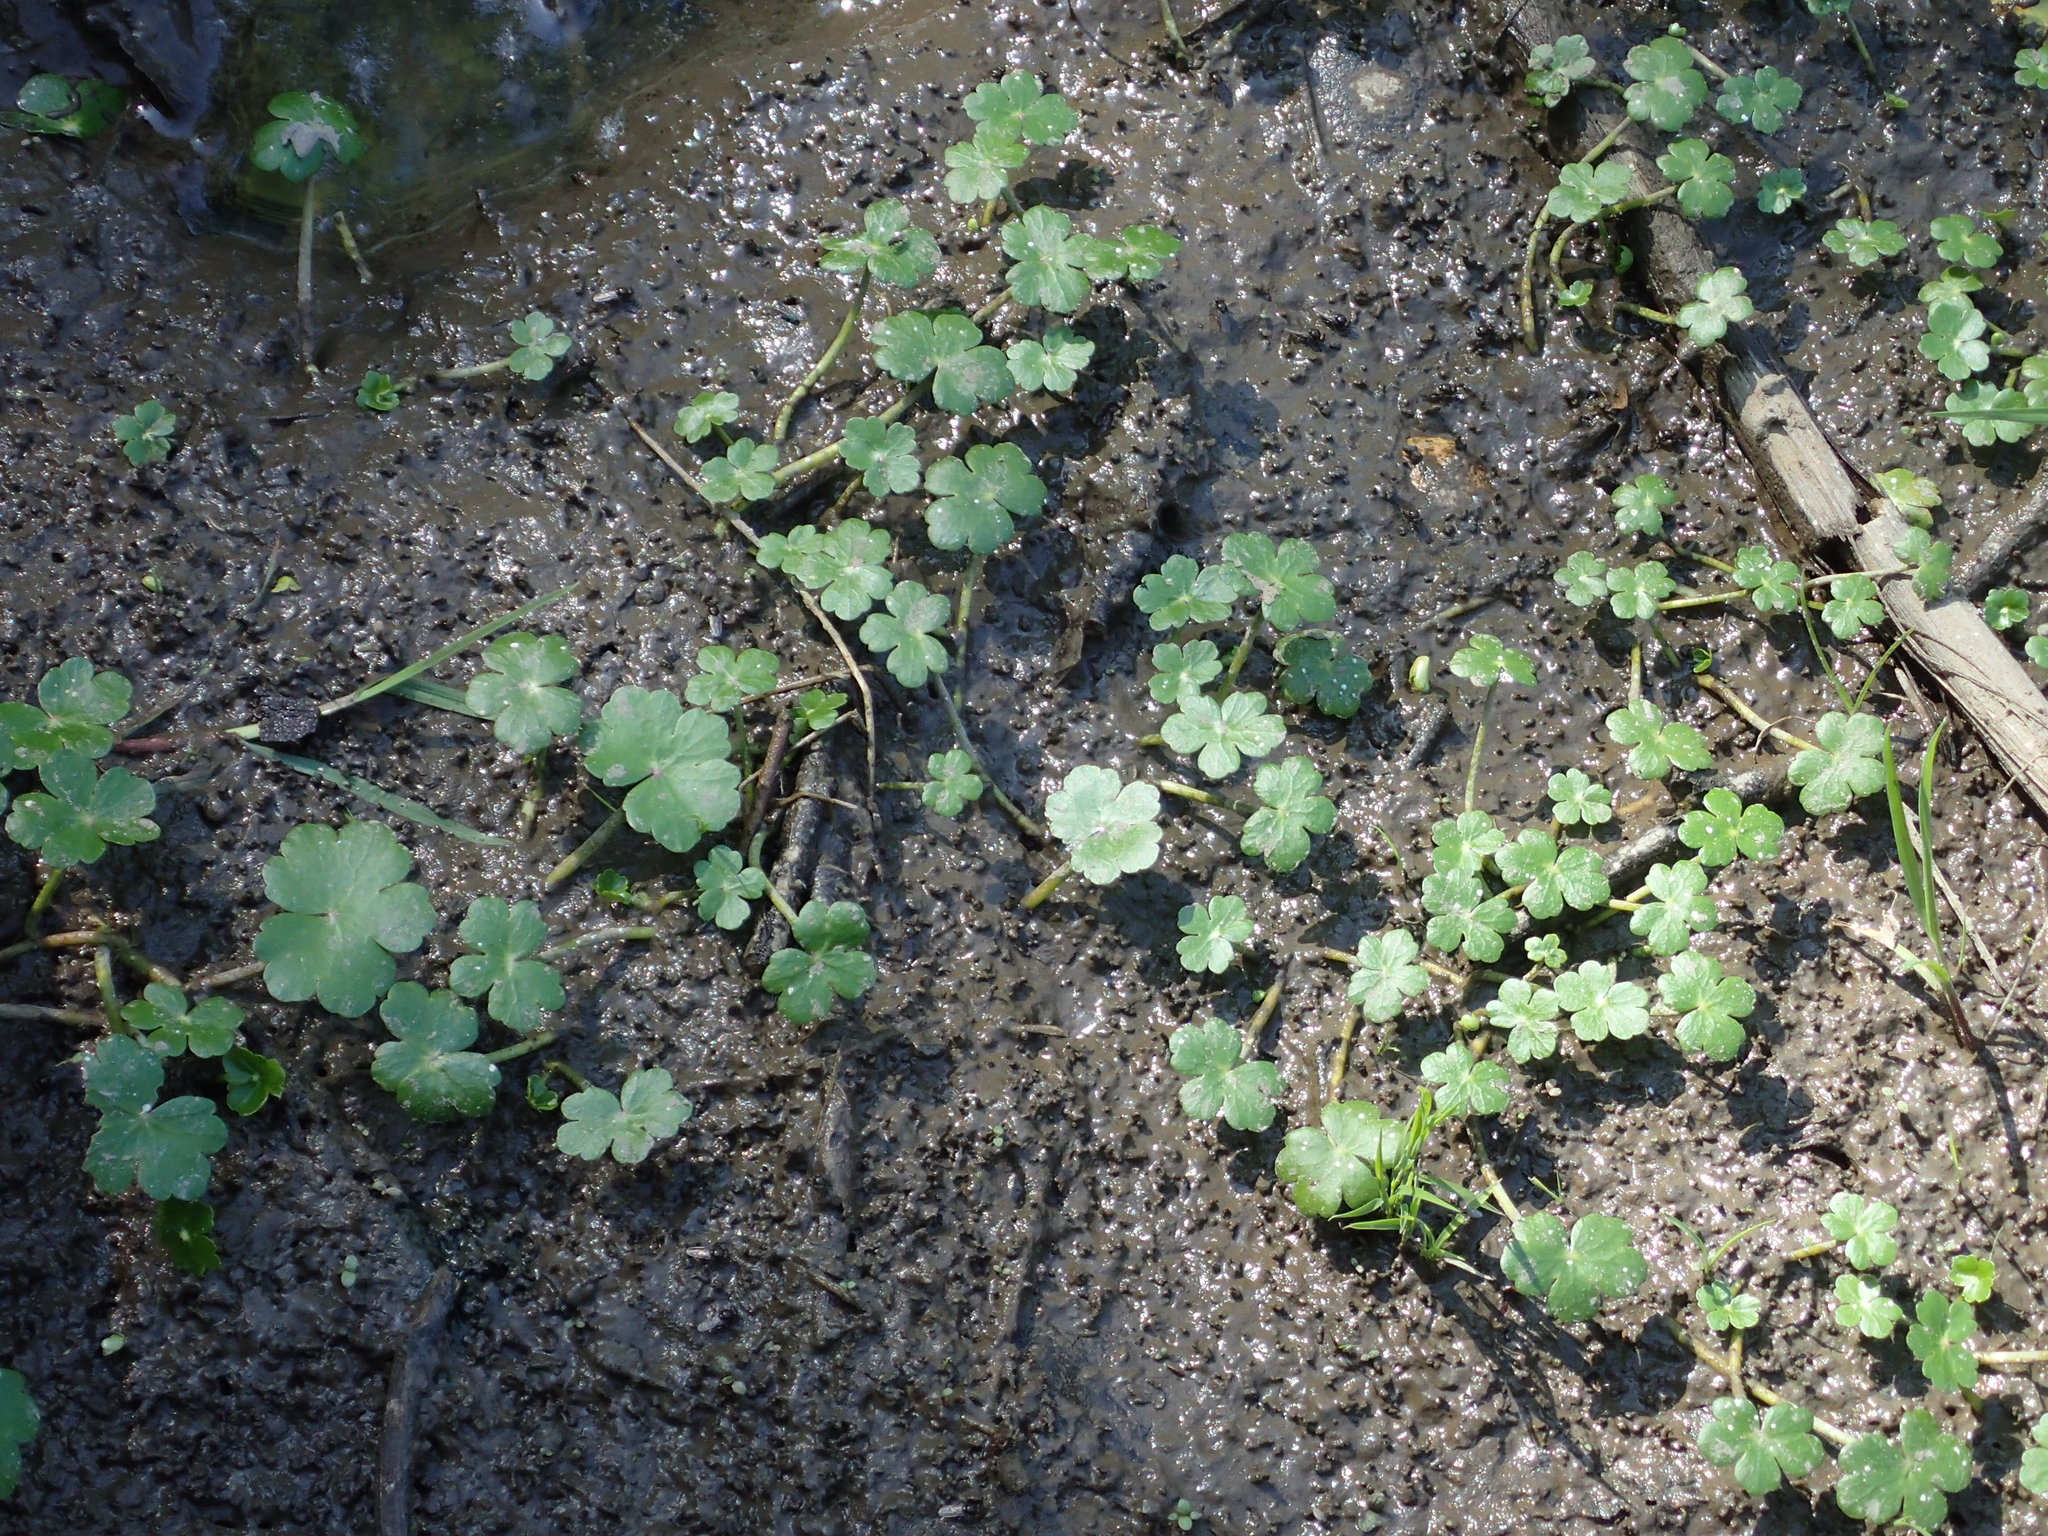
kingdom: Plantae
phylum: Tracheophyta
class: Magnoliopsida
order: Apiales
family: Araliaceae
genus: Hydrocotyle
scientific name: Hydrocotyle ranunculoides
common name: Floating pennywort
